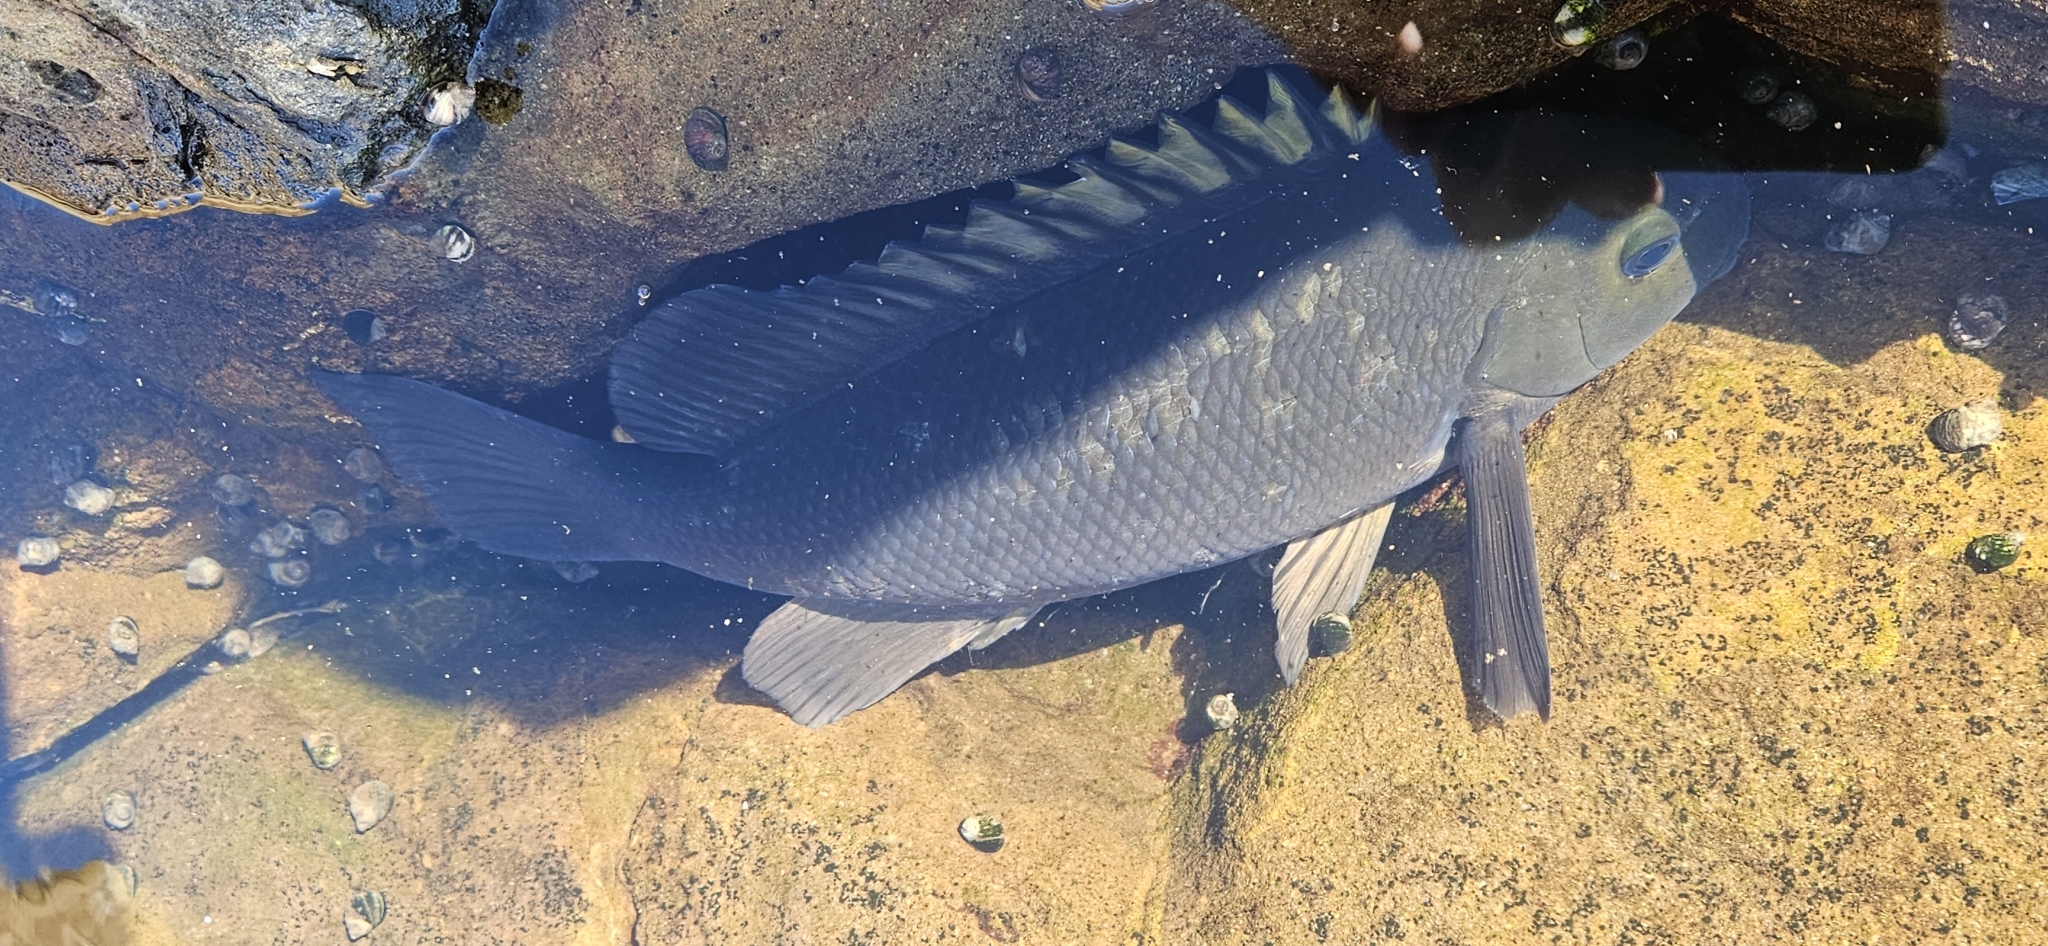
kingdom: Animalia
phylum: Chordata
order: Perciformes
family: Kyphosidae
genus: Girella
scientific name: Girella nigricans
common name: Opaleye
